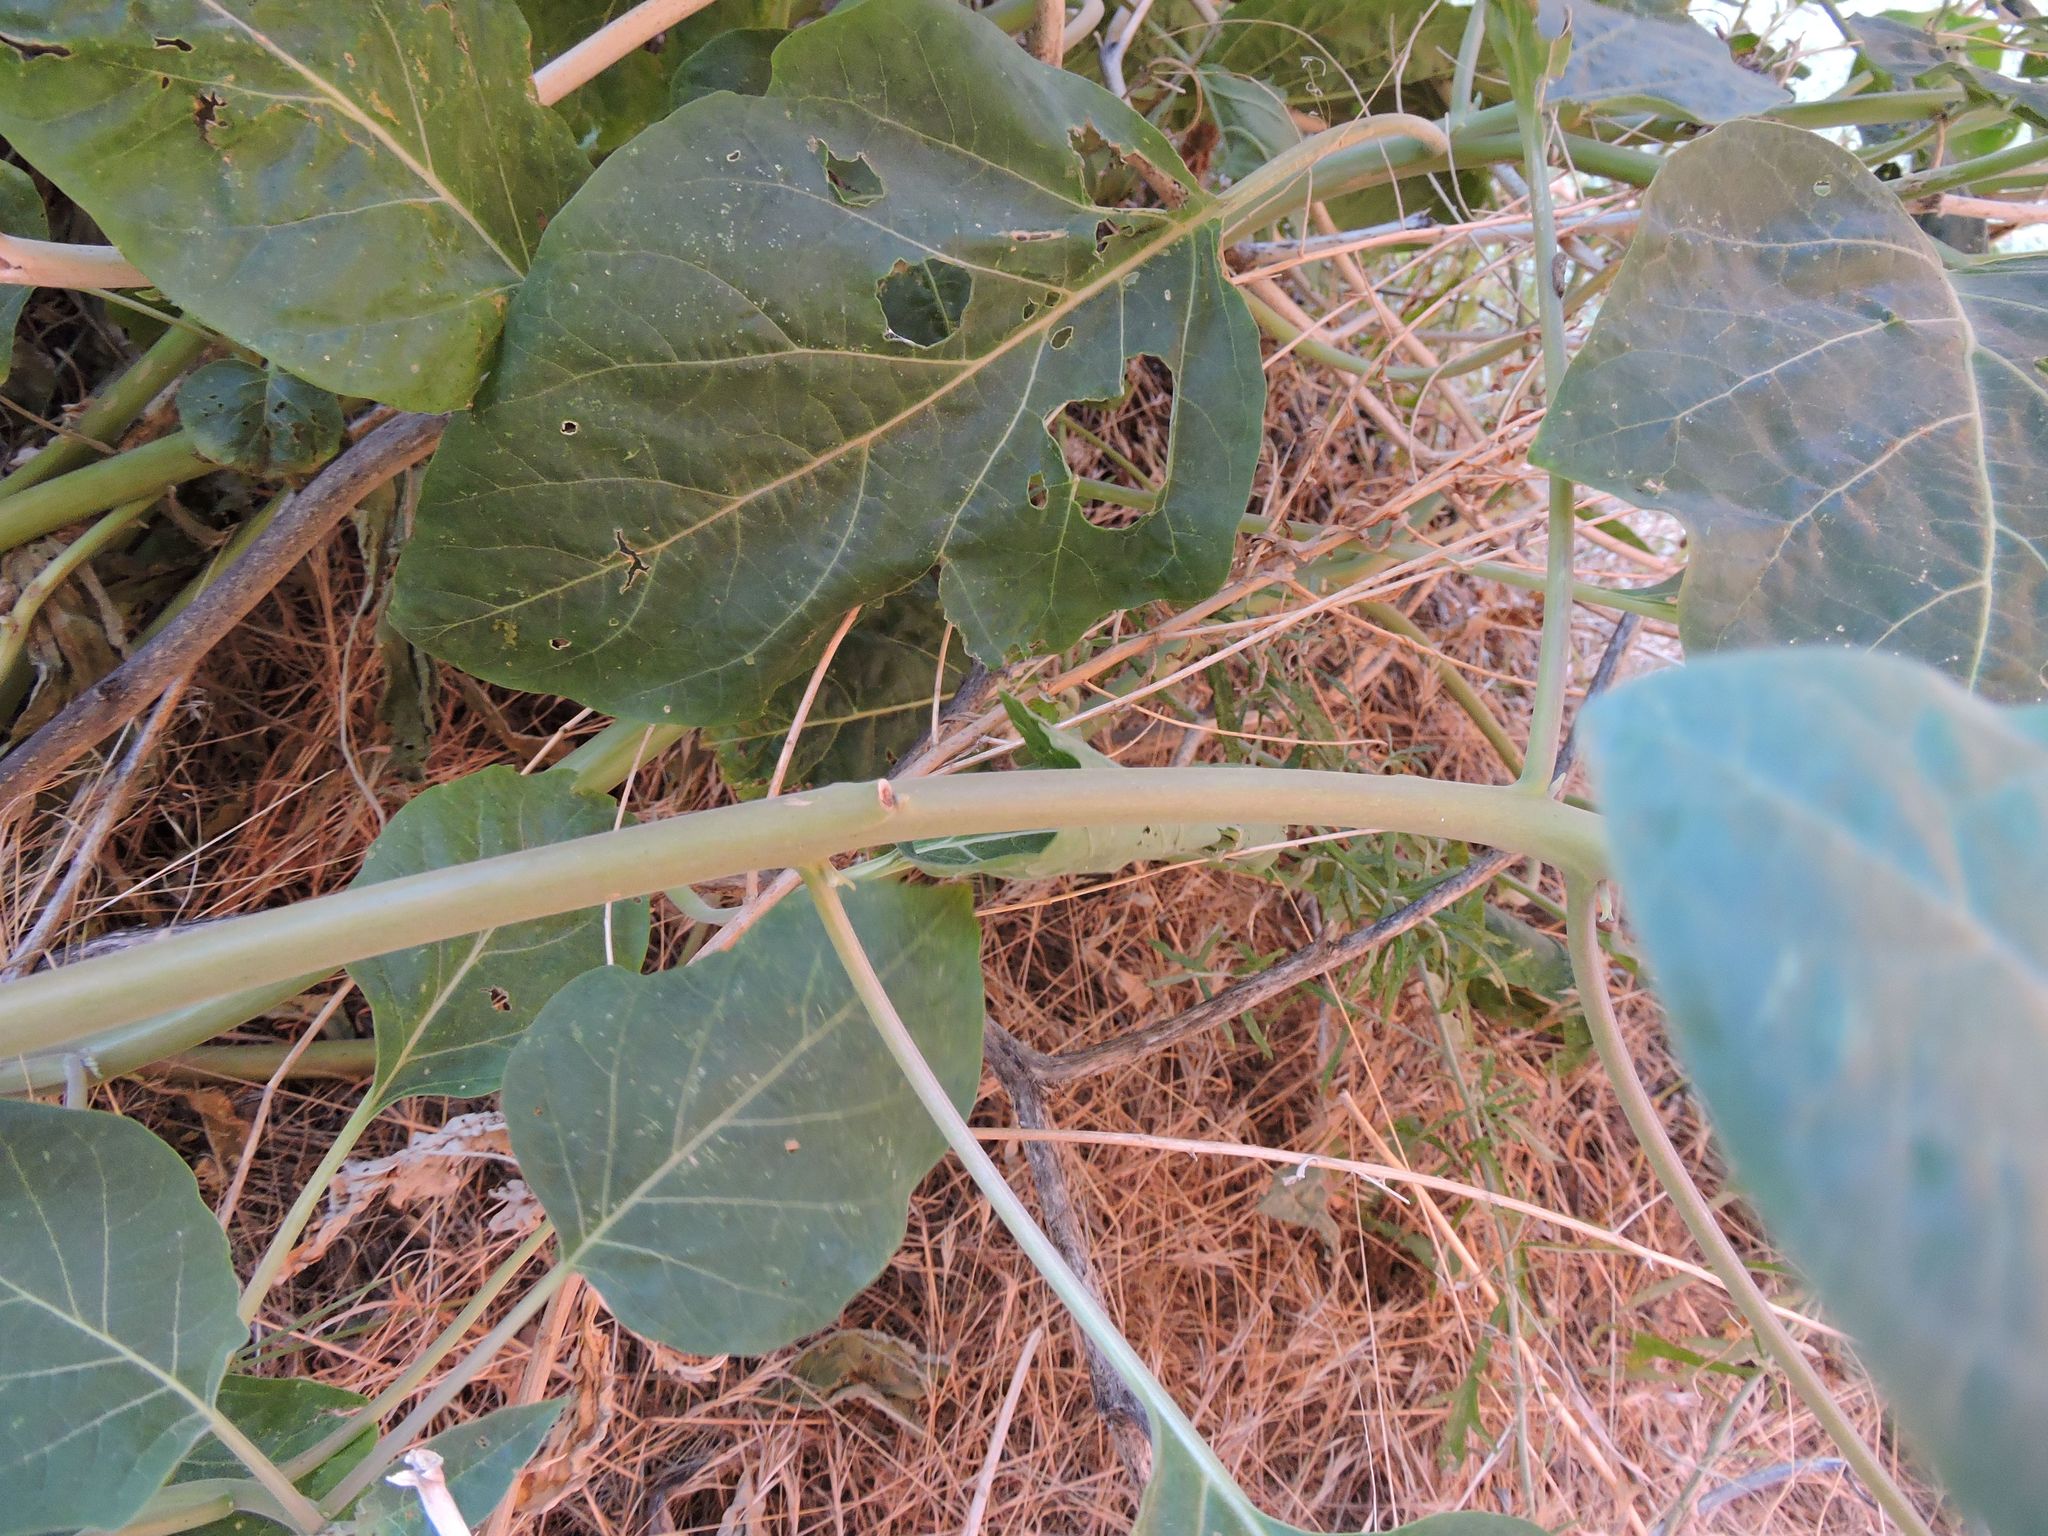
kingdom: Plantae
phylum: Tracheophyta
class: Magnoliopsida
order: Solanales
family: Solanaceae
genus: Datura
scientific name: Datura wrightii
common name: Sacred thorn-apple
